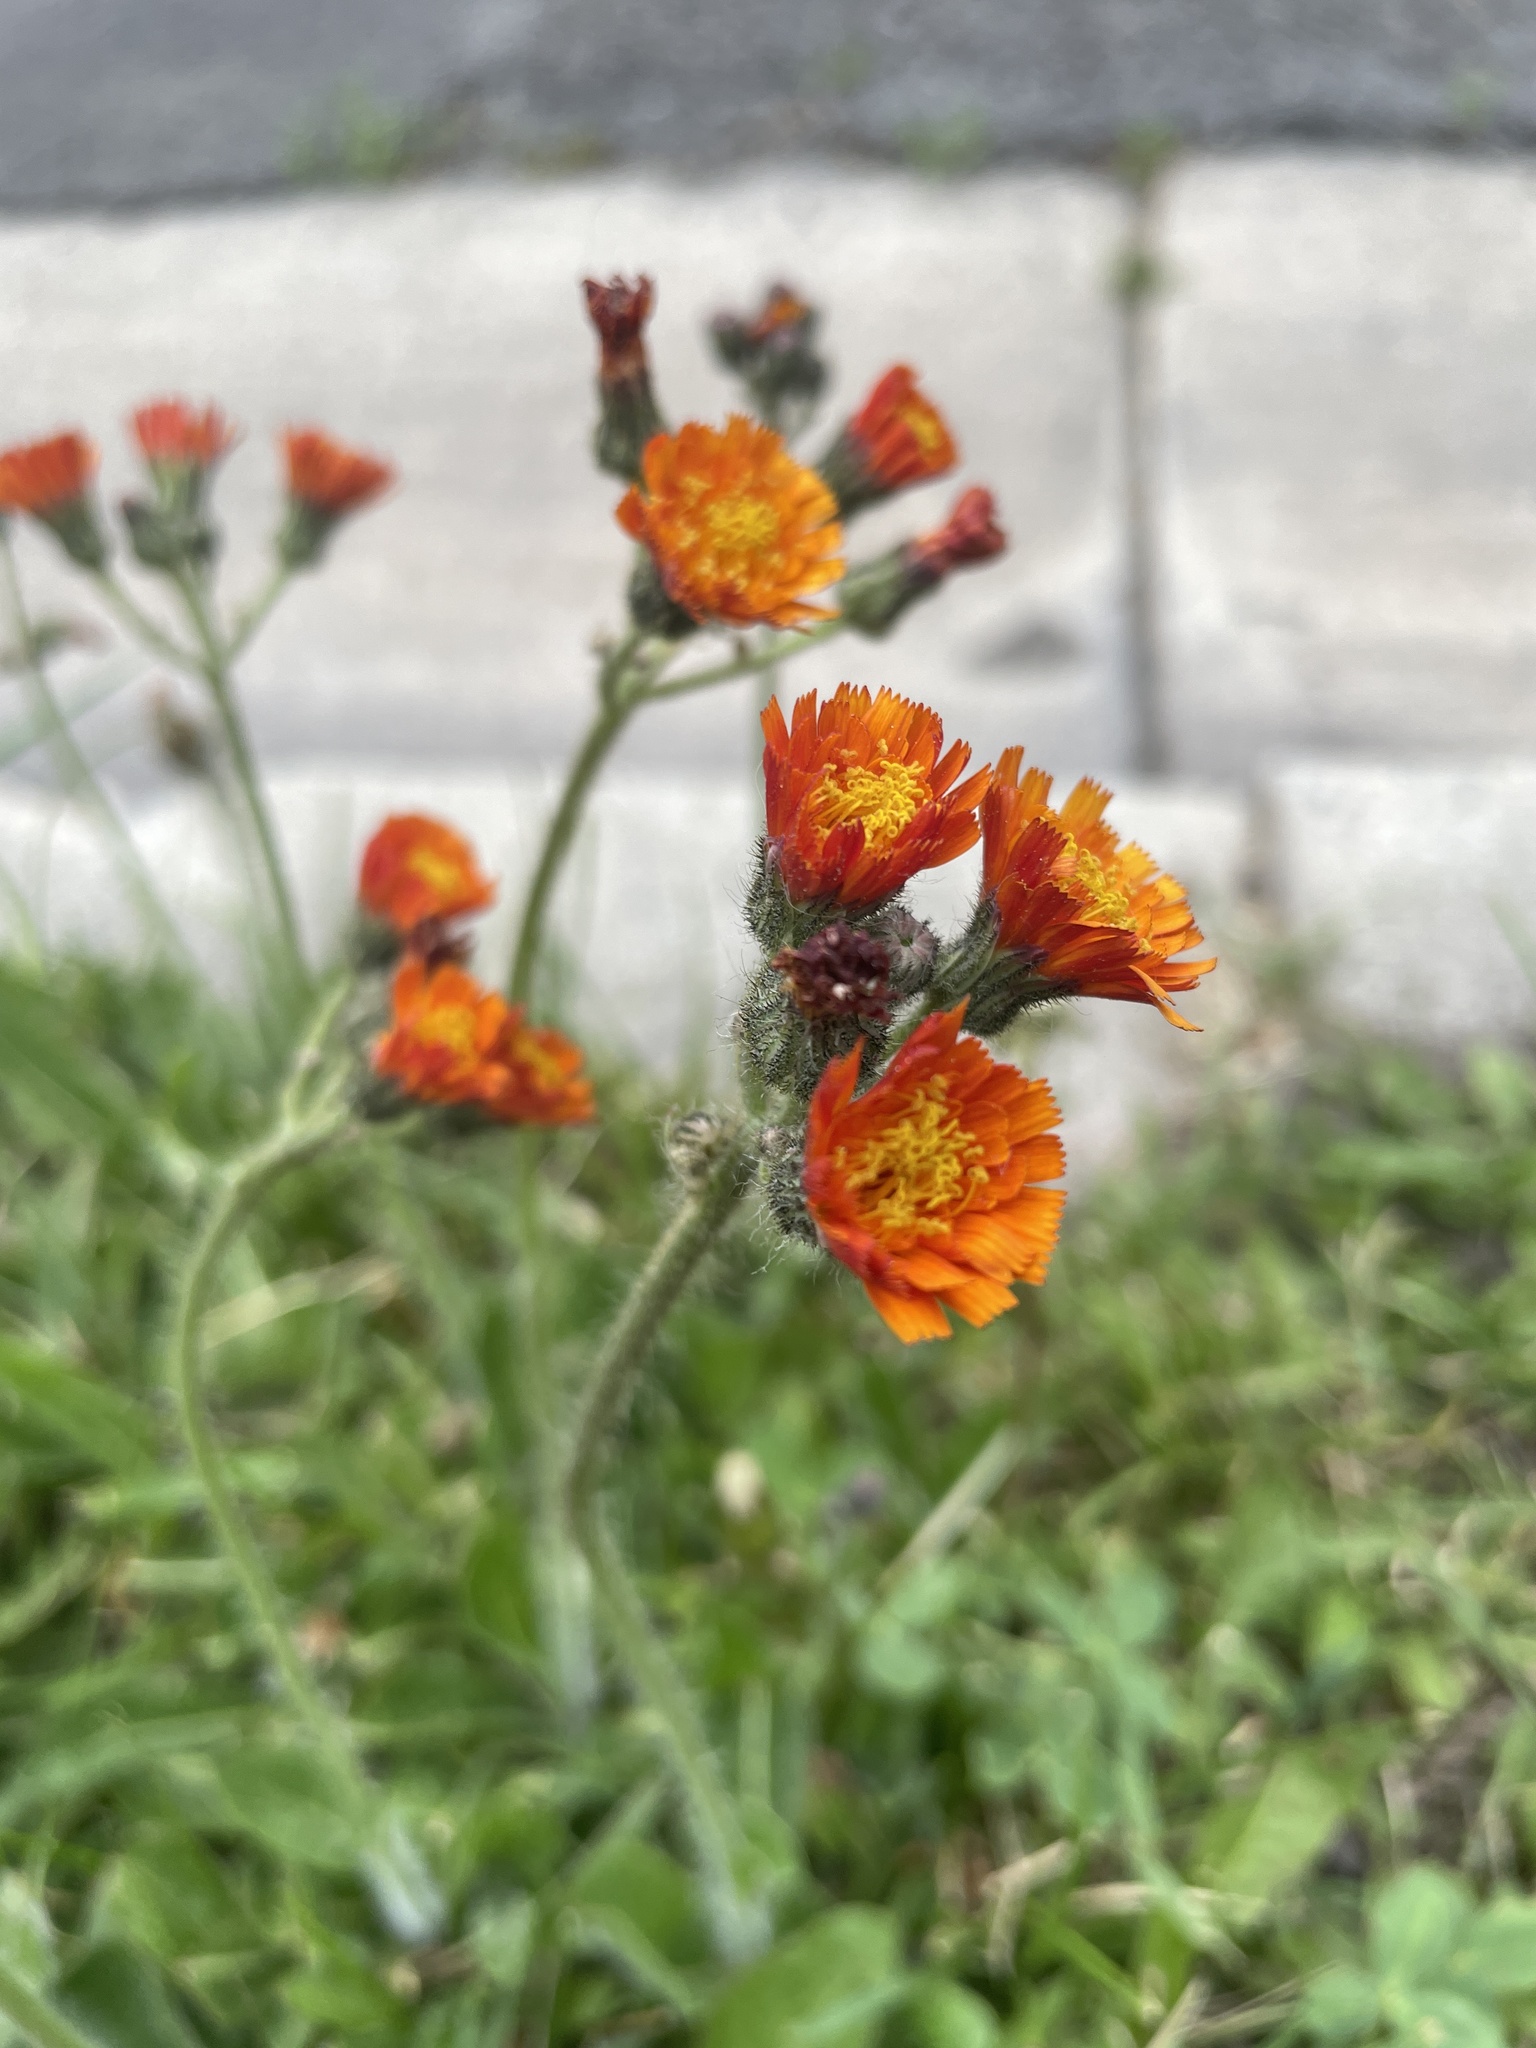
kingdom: Plantae
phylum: Tracheophyta
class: Magnoliopsida
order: Asterales
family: Asteraceae
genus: Pilosella
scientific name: Pilosella aurantiaca
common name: Fox-and-cubs
